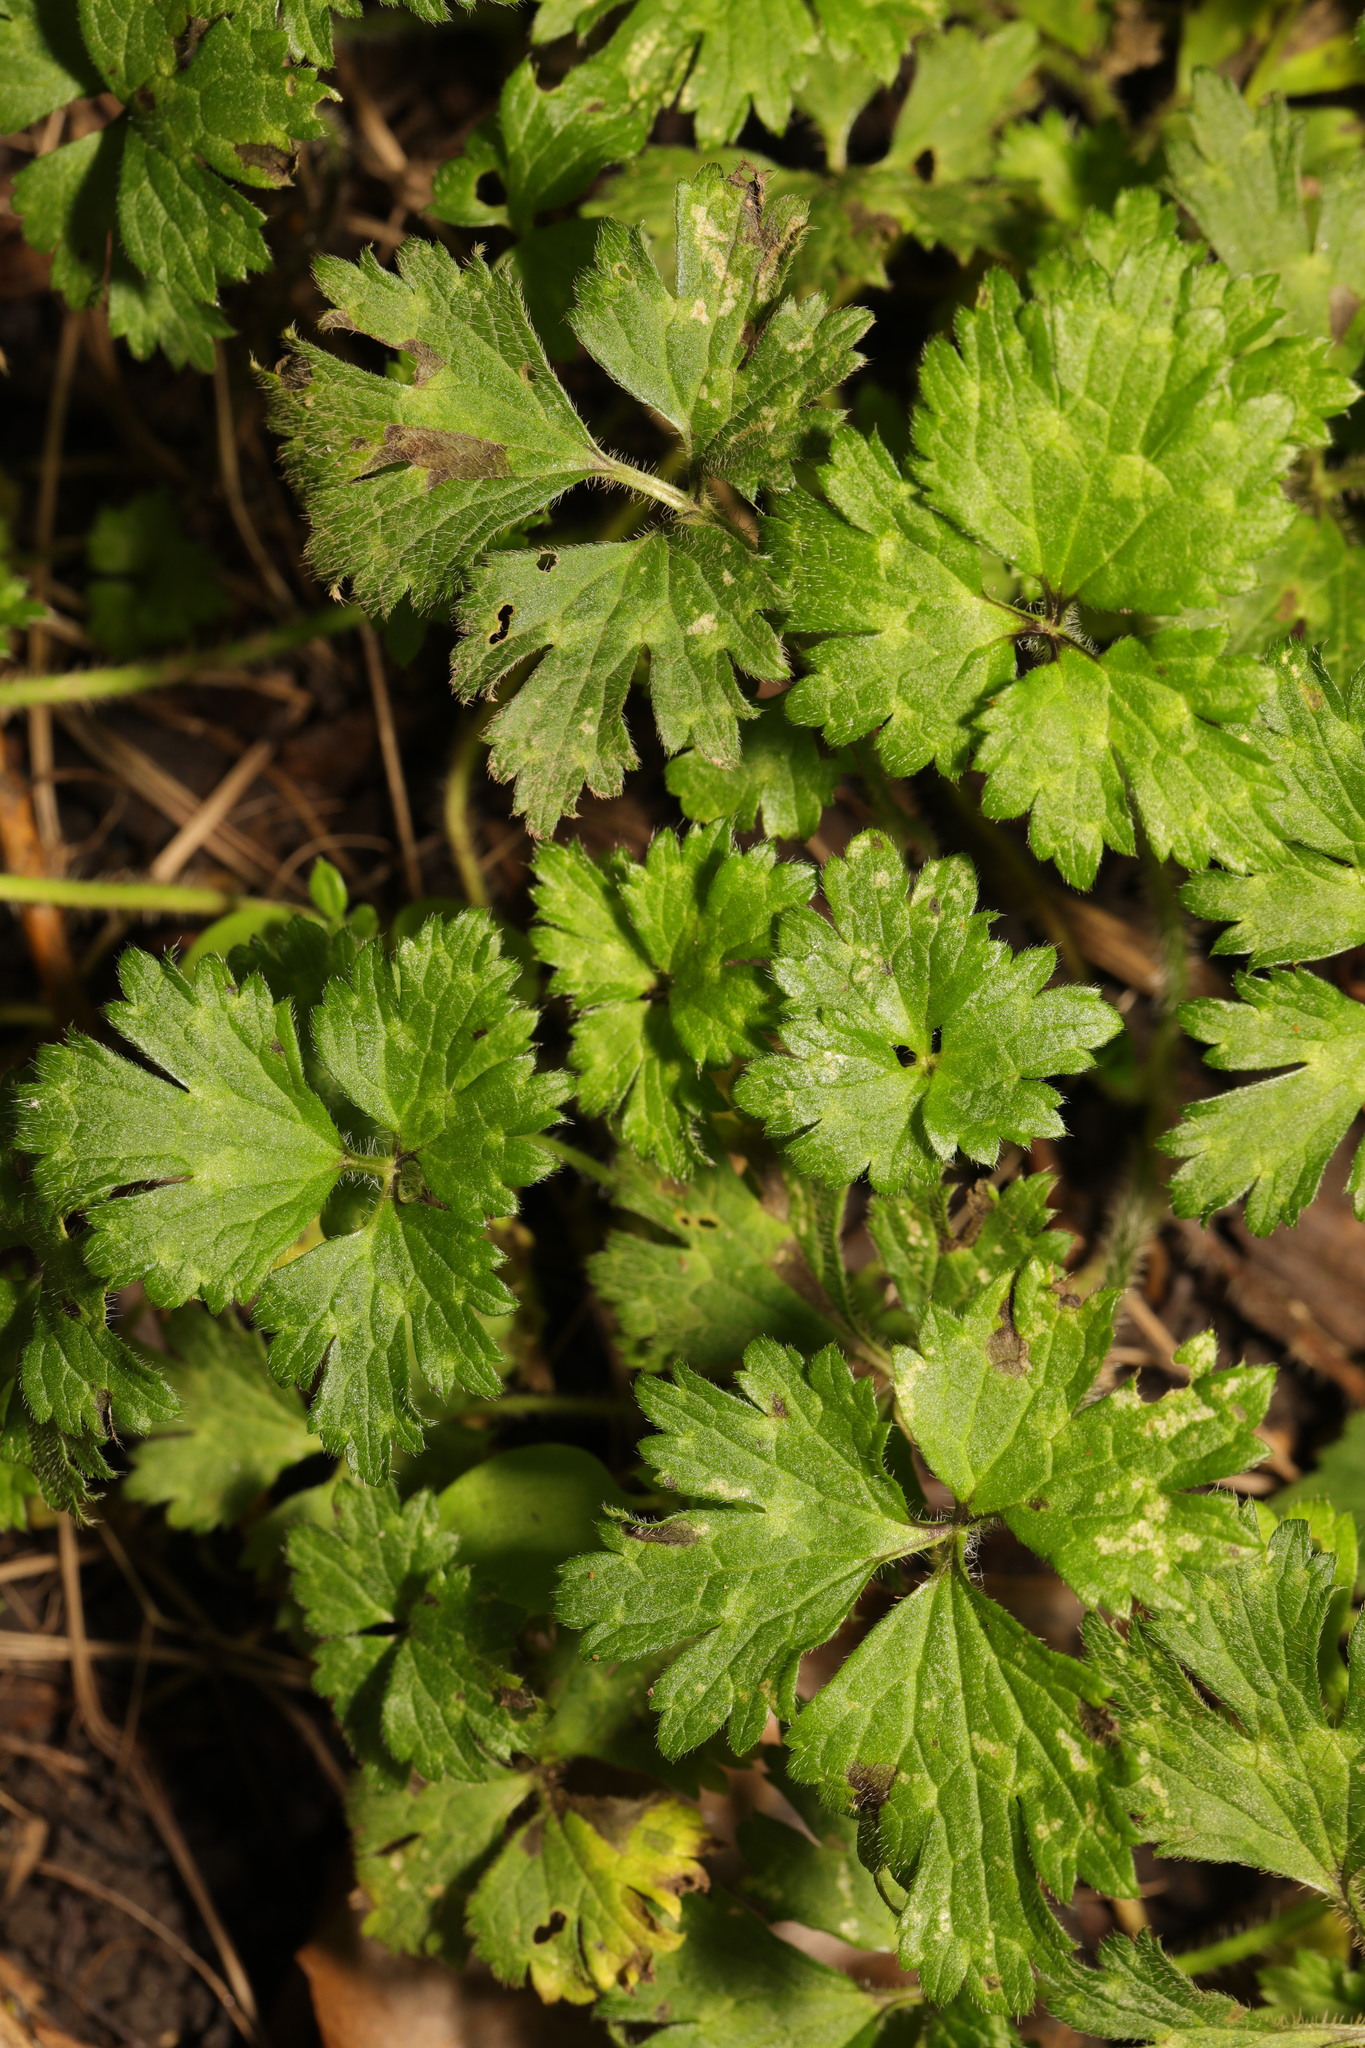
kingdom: Plantae
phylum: Tracheophyta
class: Magnoliopsida
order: Ranunculales
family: Ranunculaceae
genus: Ranunculus
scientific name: Ranunculus repens
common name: Creeping buttercup
